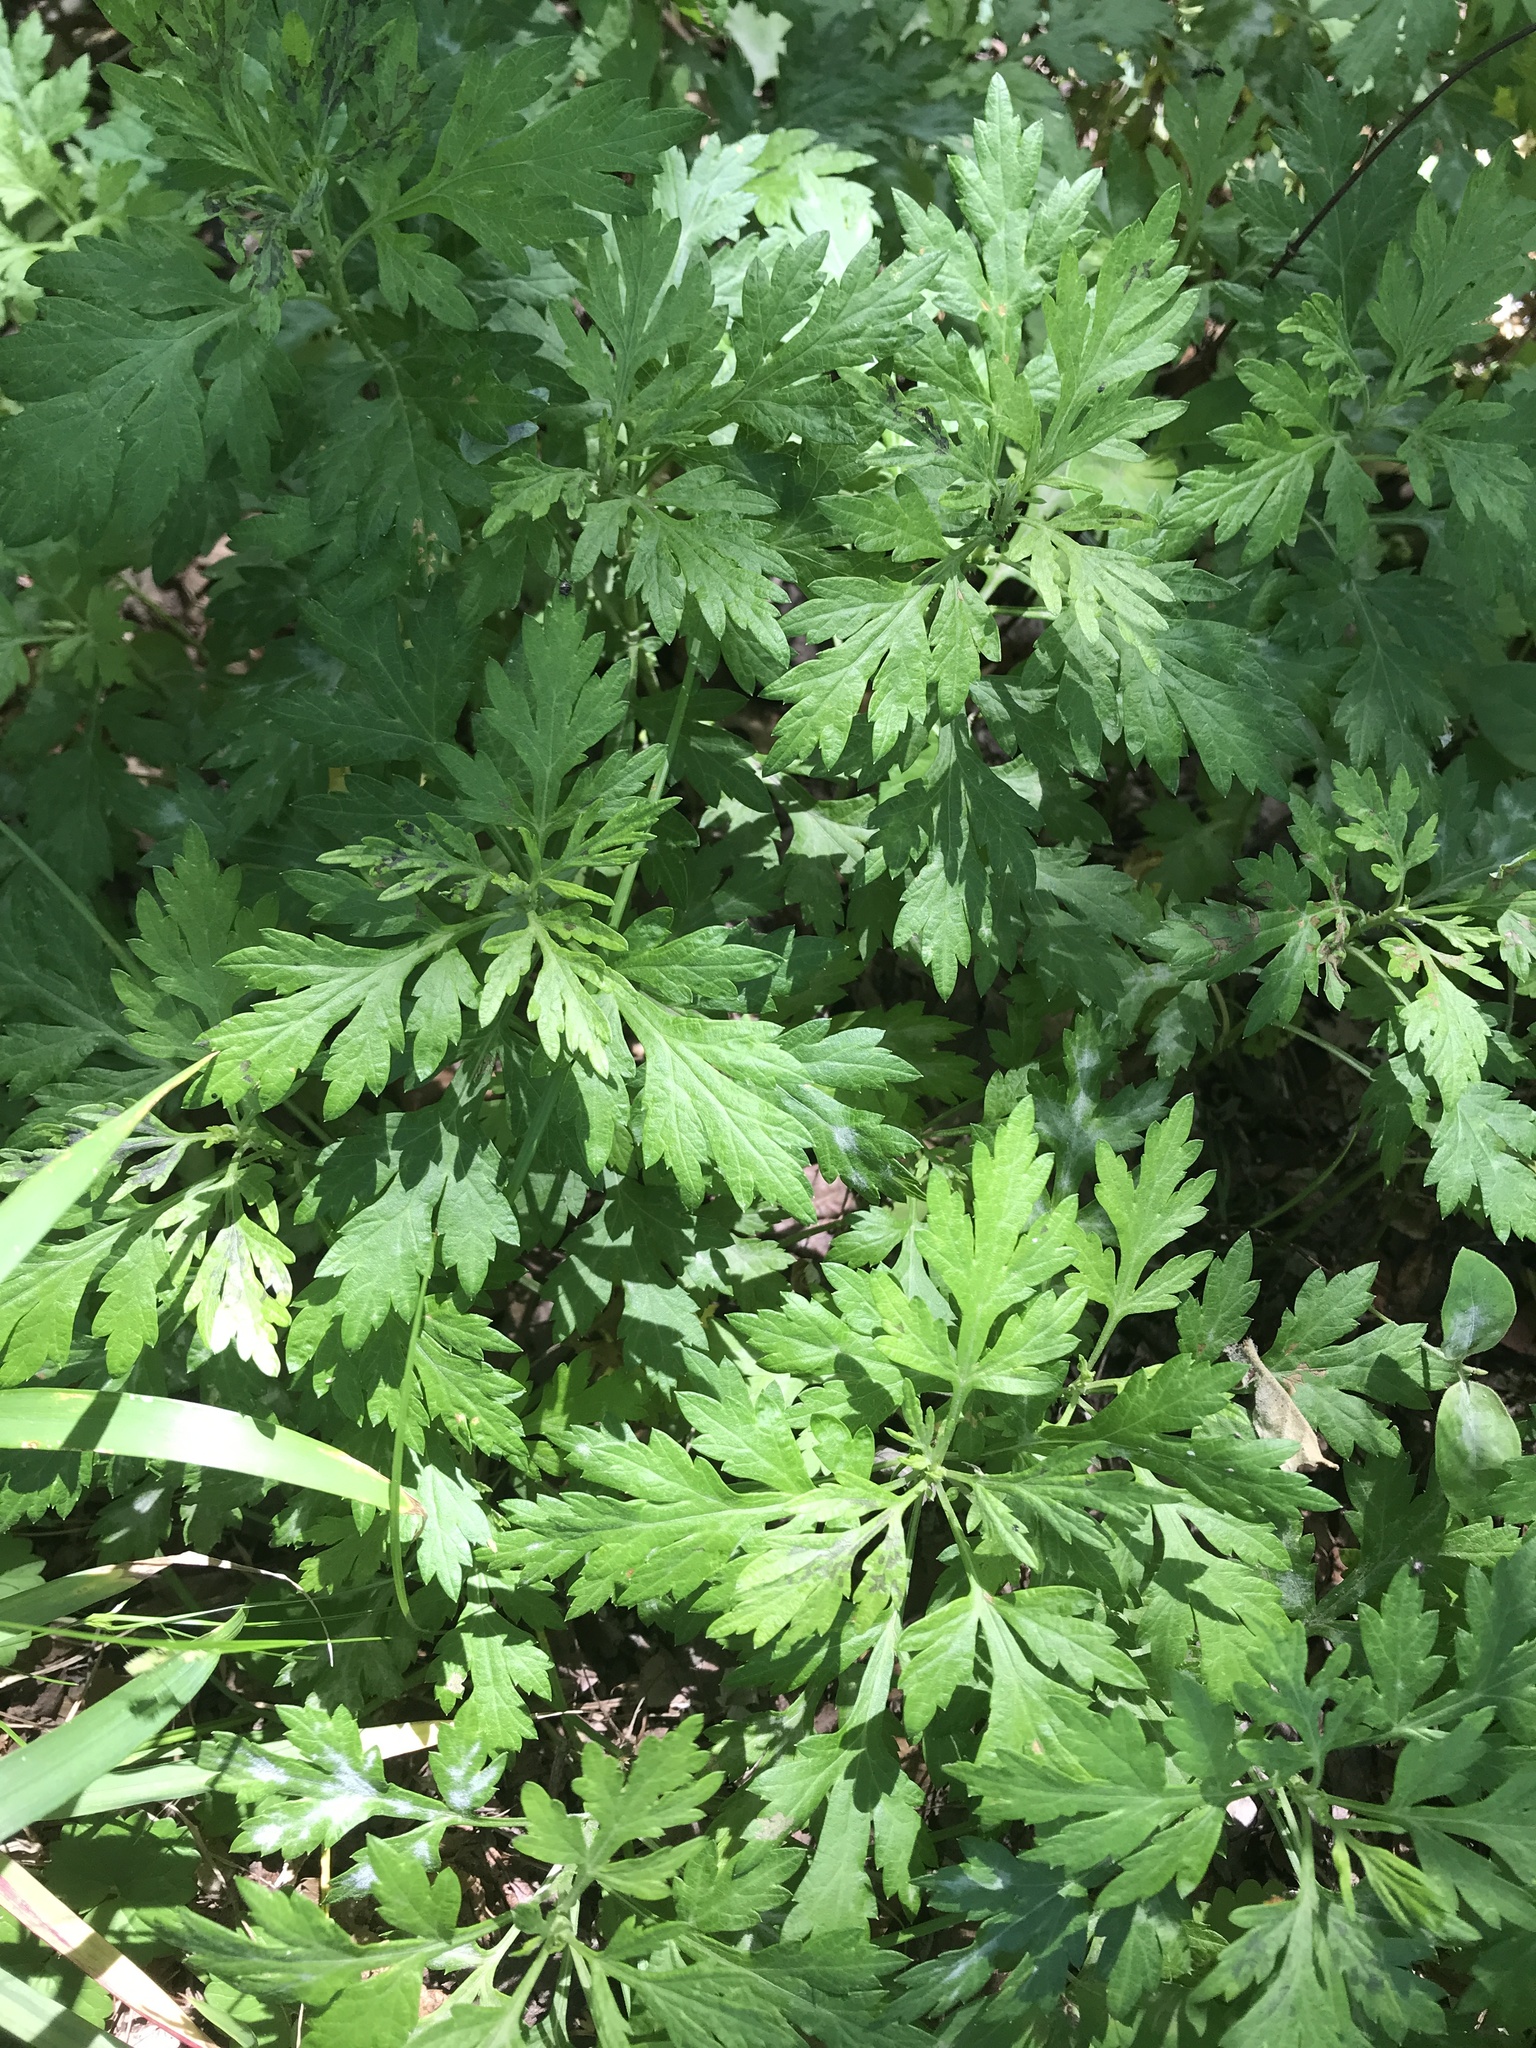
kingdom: Plantae
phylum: Tracheophyta
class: Magnoliopsida
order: Asterales
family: Asteraceae
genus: Artemisia
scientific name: Artemisia vulgaris
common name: Mugwort
